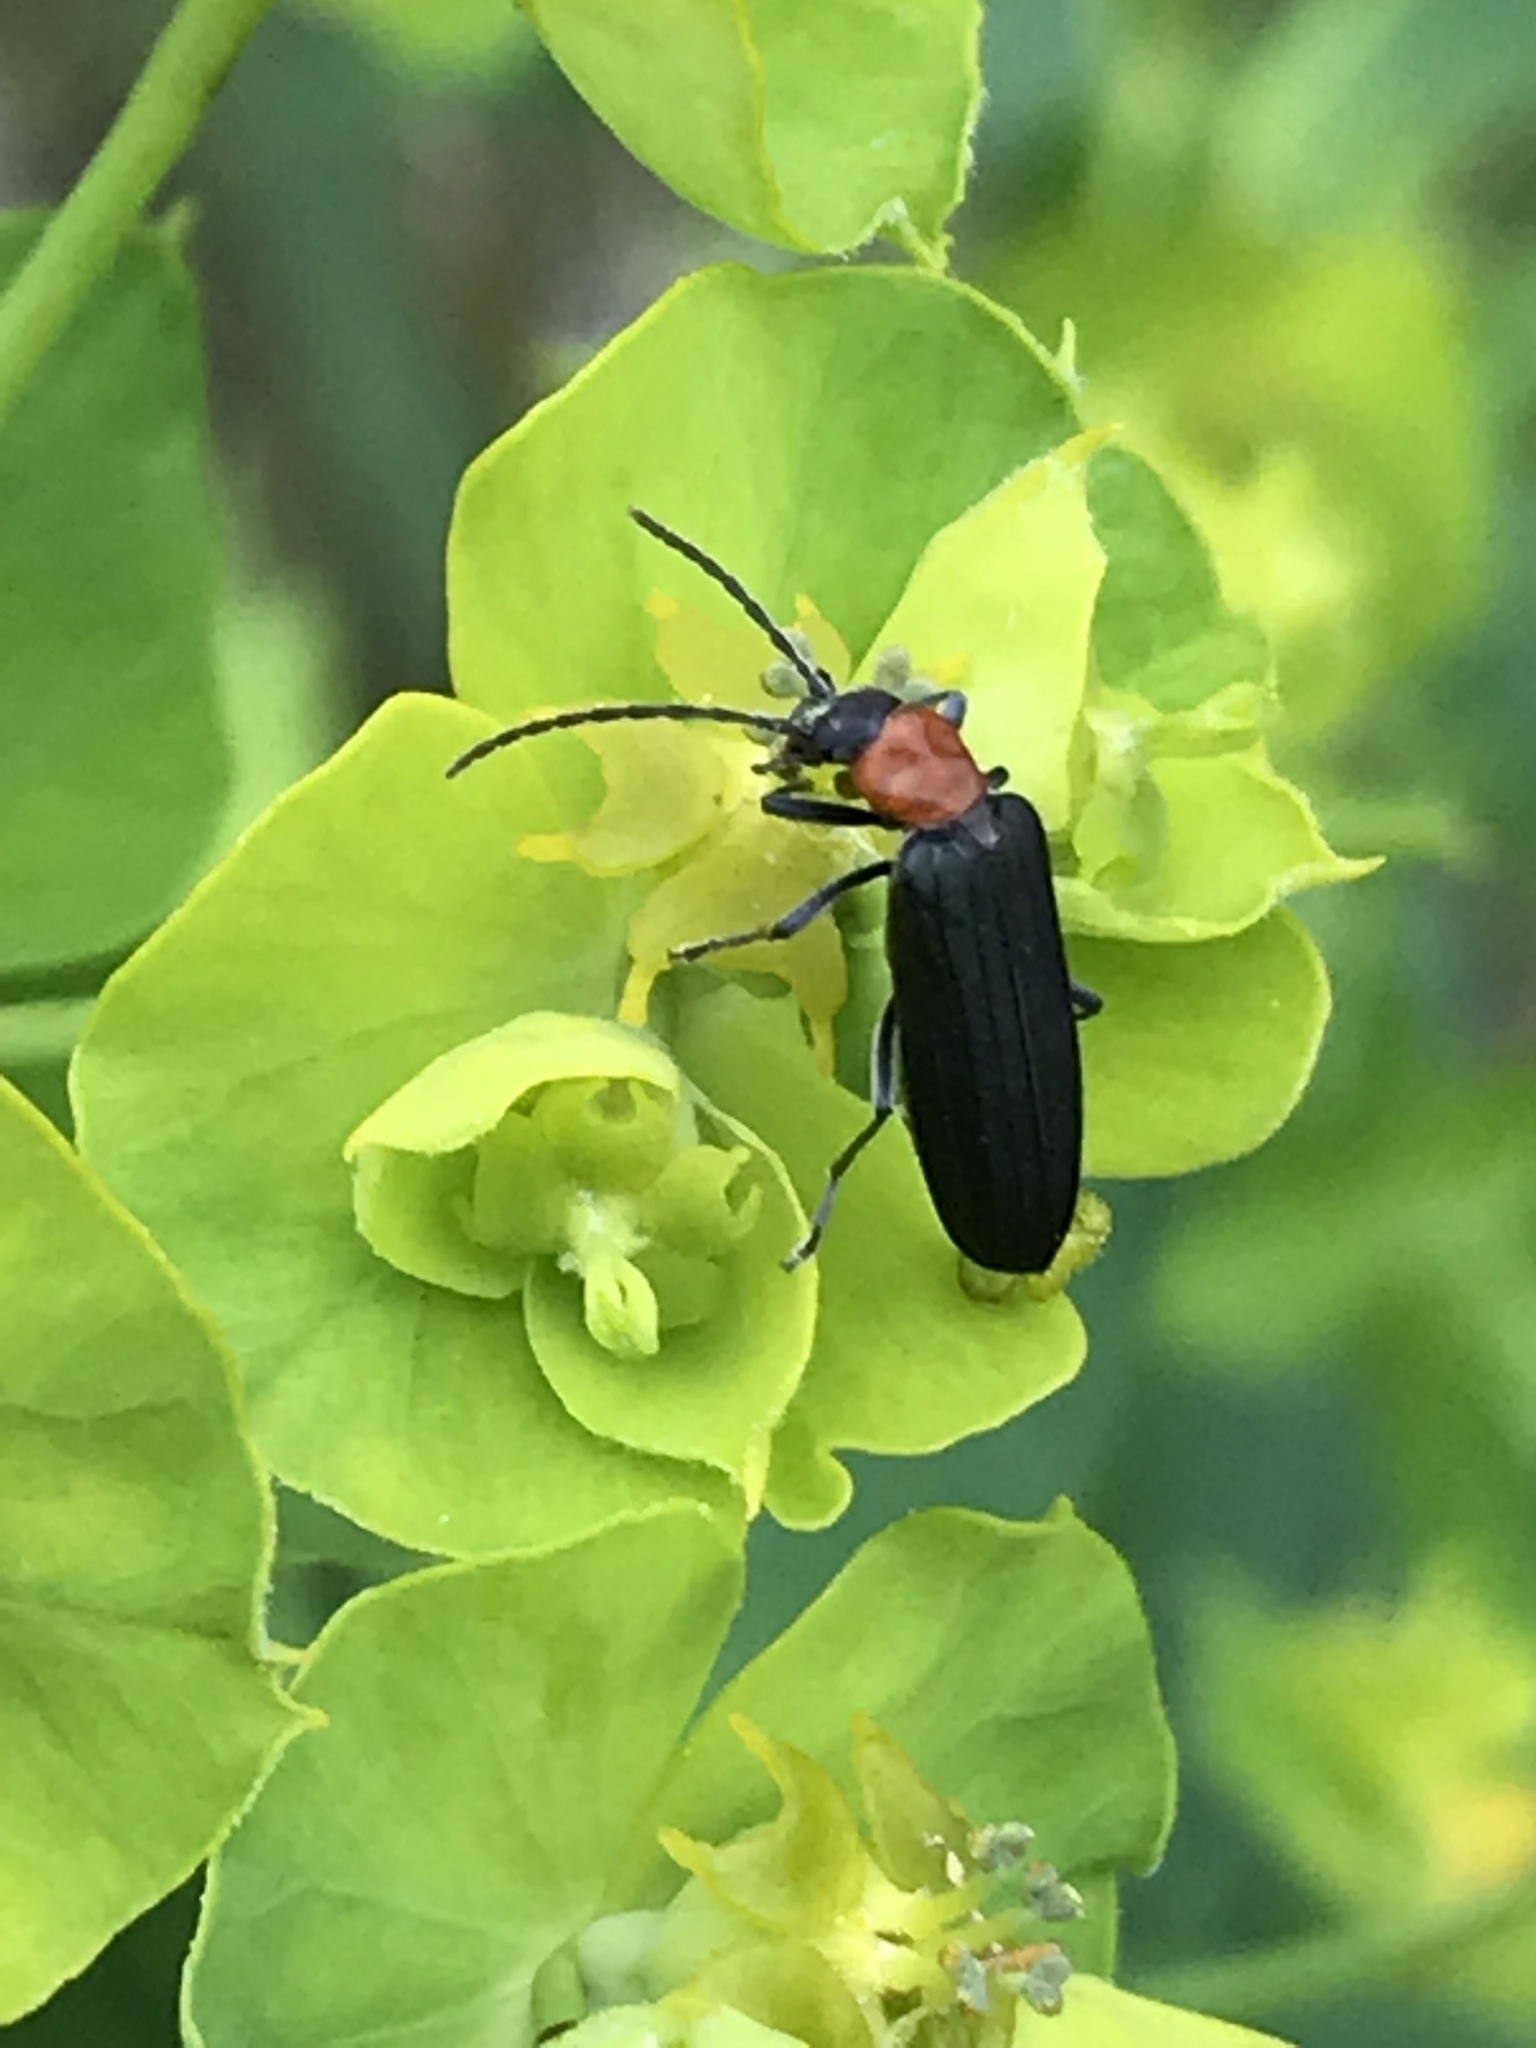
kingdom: Animalia
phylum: Arthropoda
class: Insecta
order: Coleoptera
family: Oedemeridae
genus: Ischnomera
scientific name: Ischnomera
